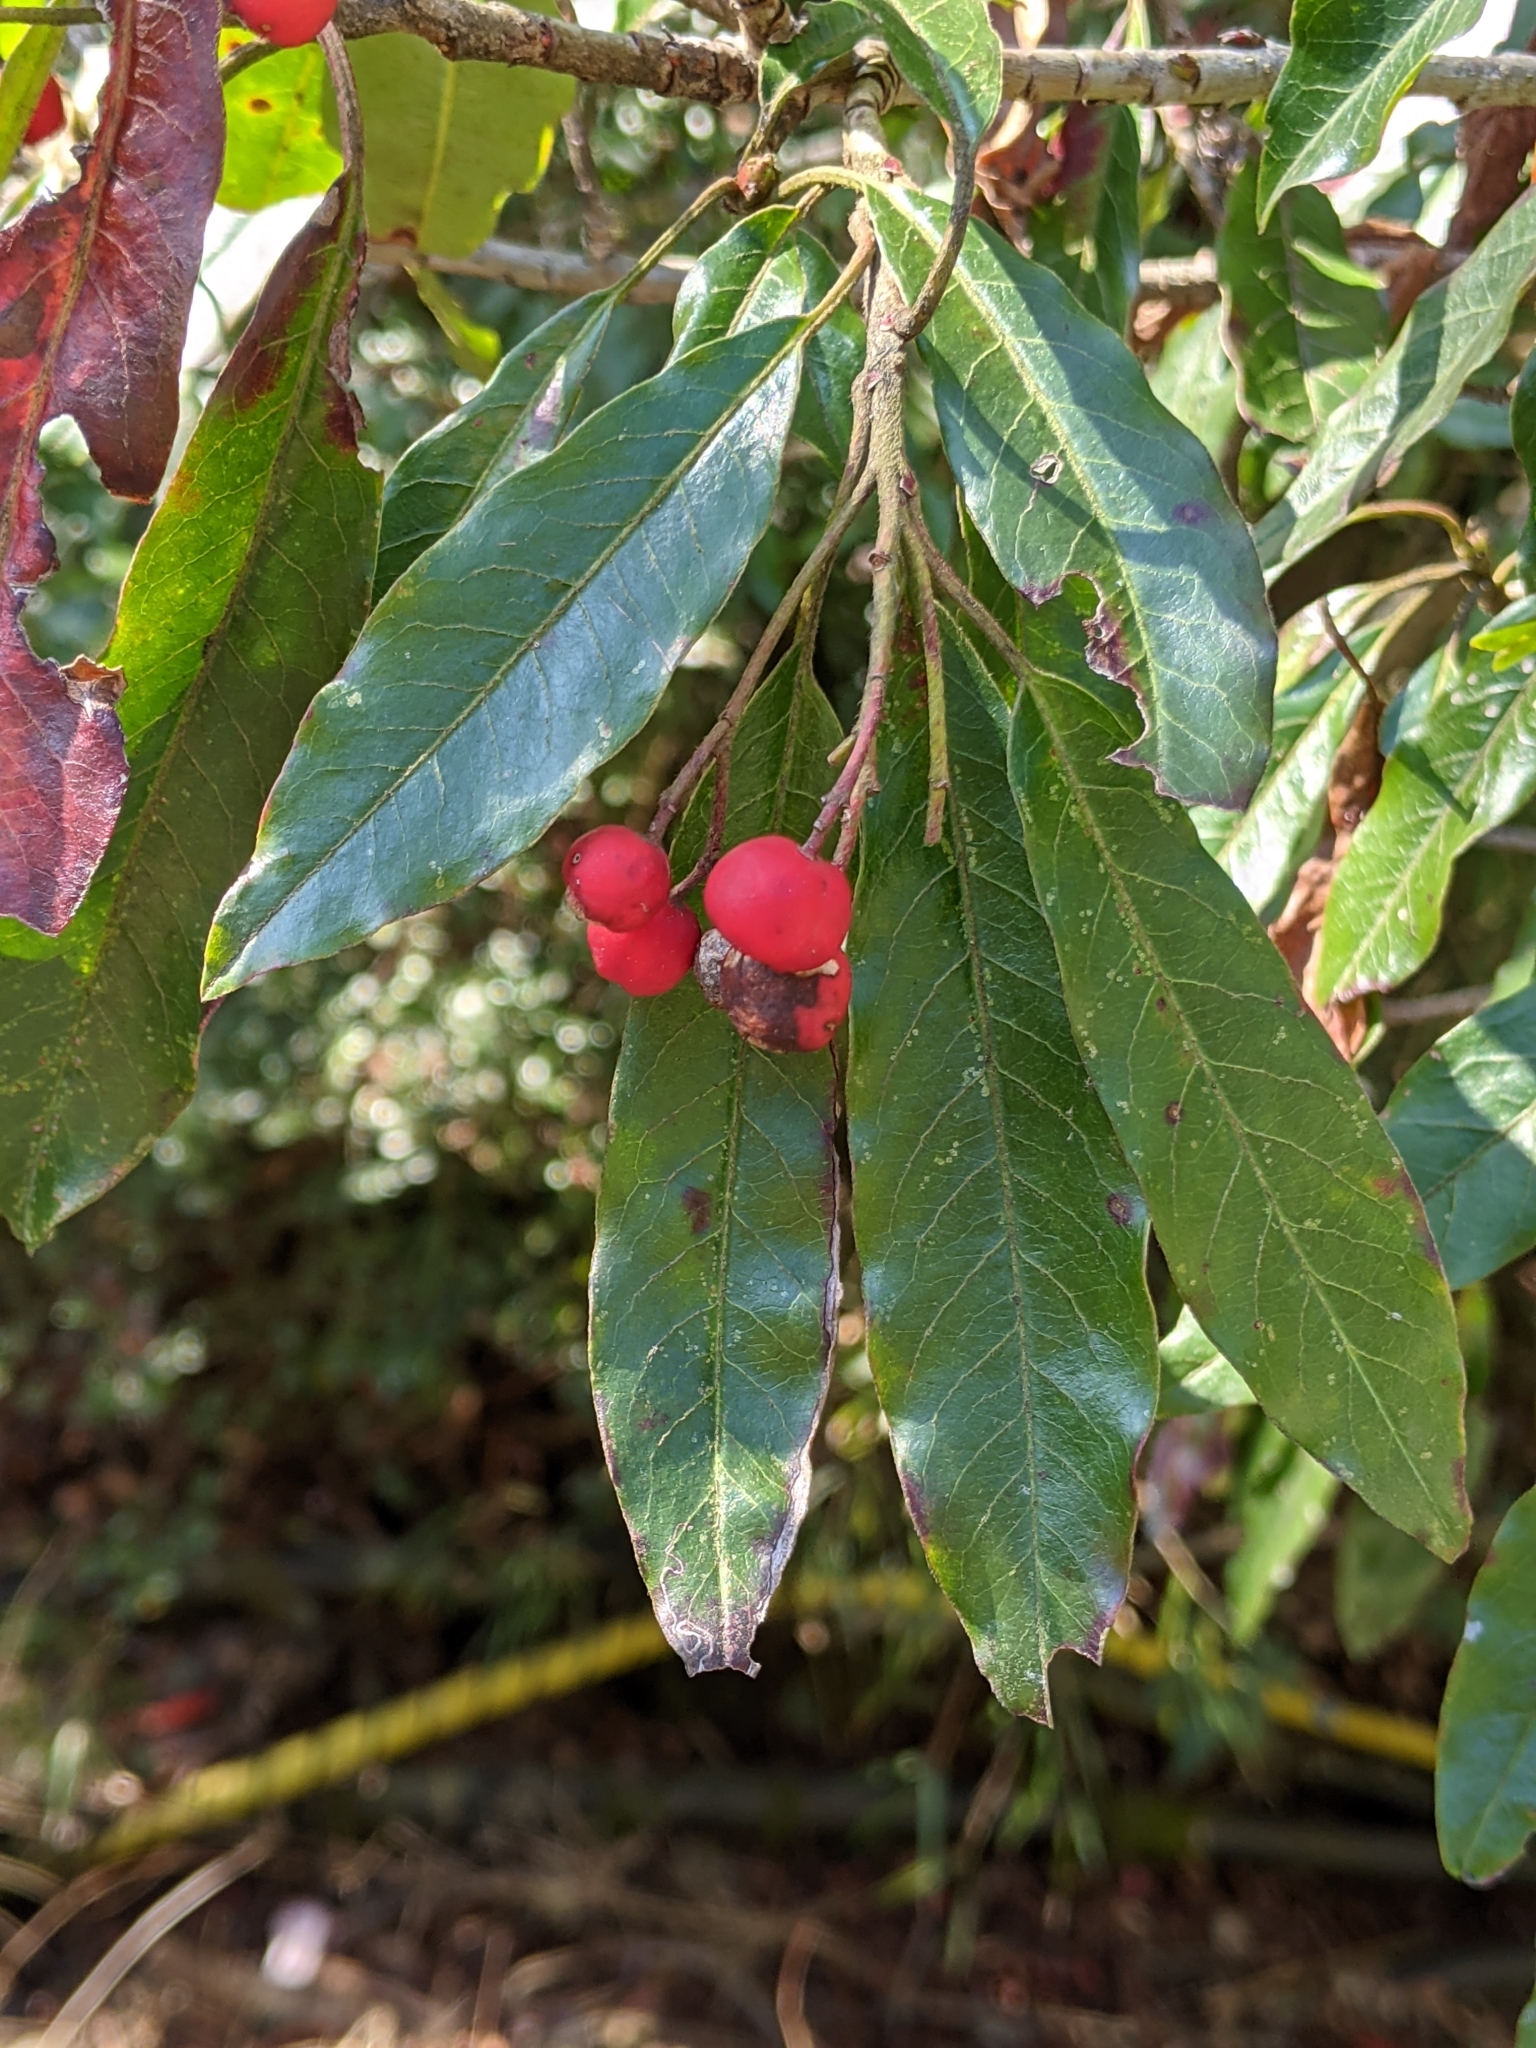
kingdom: Plantae
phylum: Tracheophyta
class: Magnoliopsida
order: Rosales
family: Rosaceae
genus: Stranvaesia
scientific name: Stranvaesia davidiana
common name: Chinese photinia
